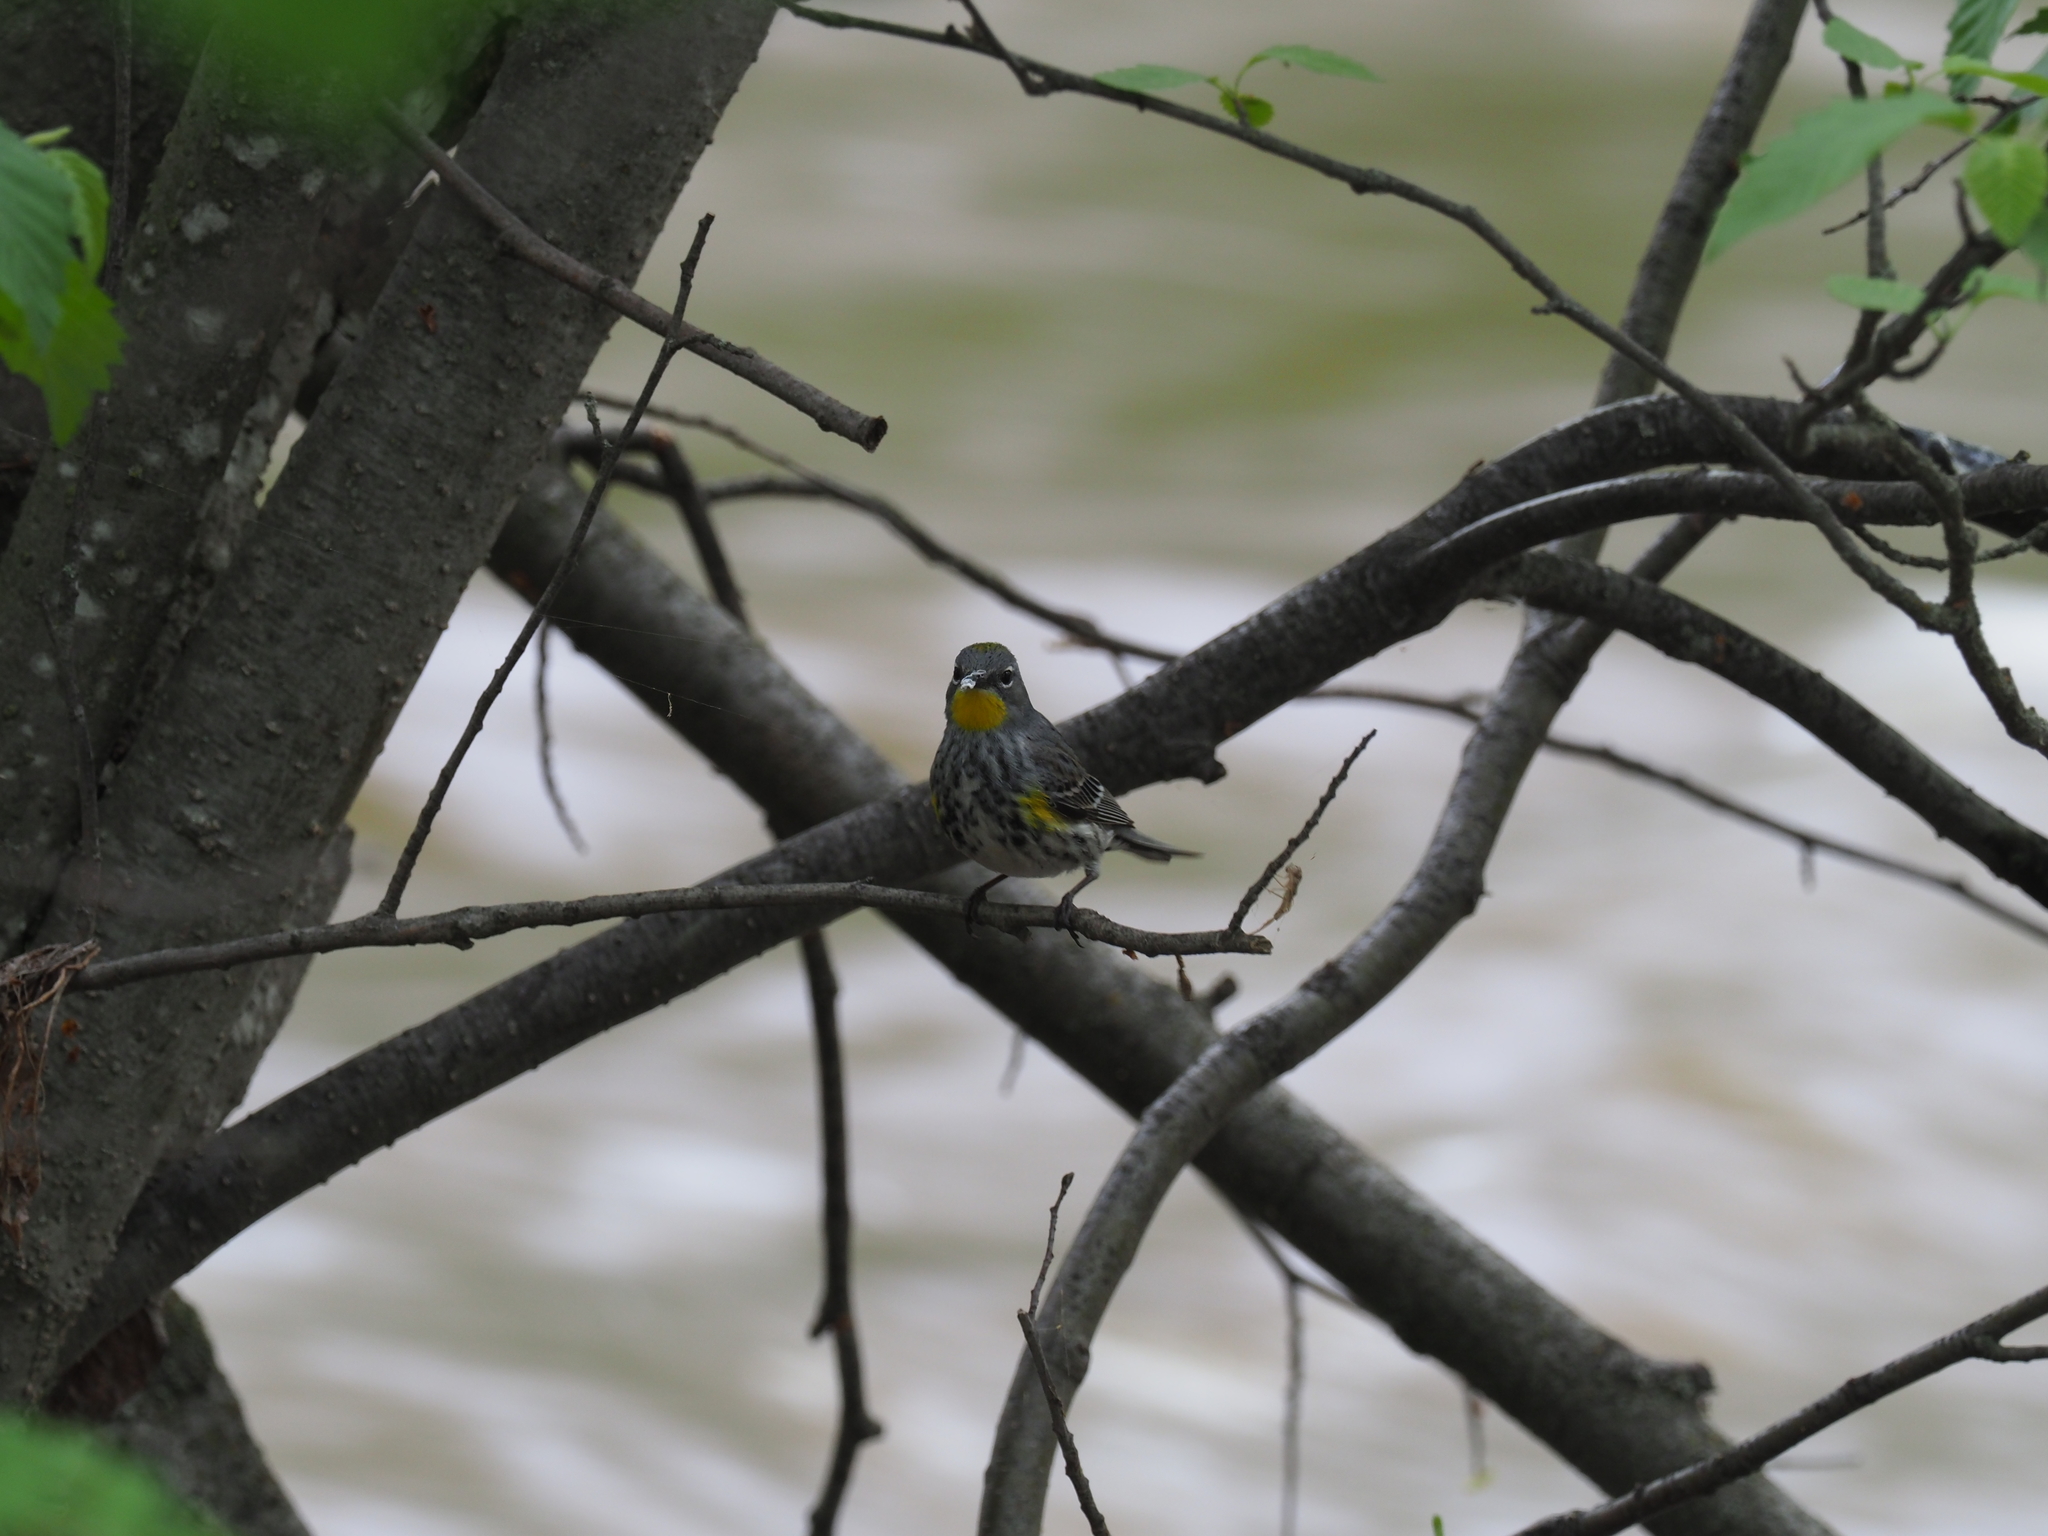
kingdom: Animalia
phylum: Chordata
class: Aves
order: Passeriformes
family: Parulidae
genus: Setophaga
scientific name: Setophaga auduboni
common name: Audubon's warbler
